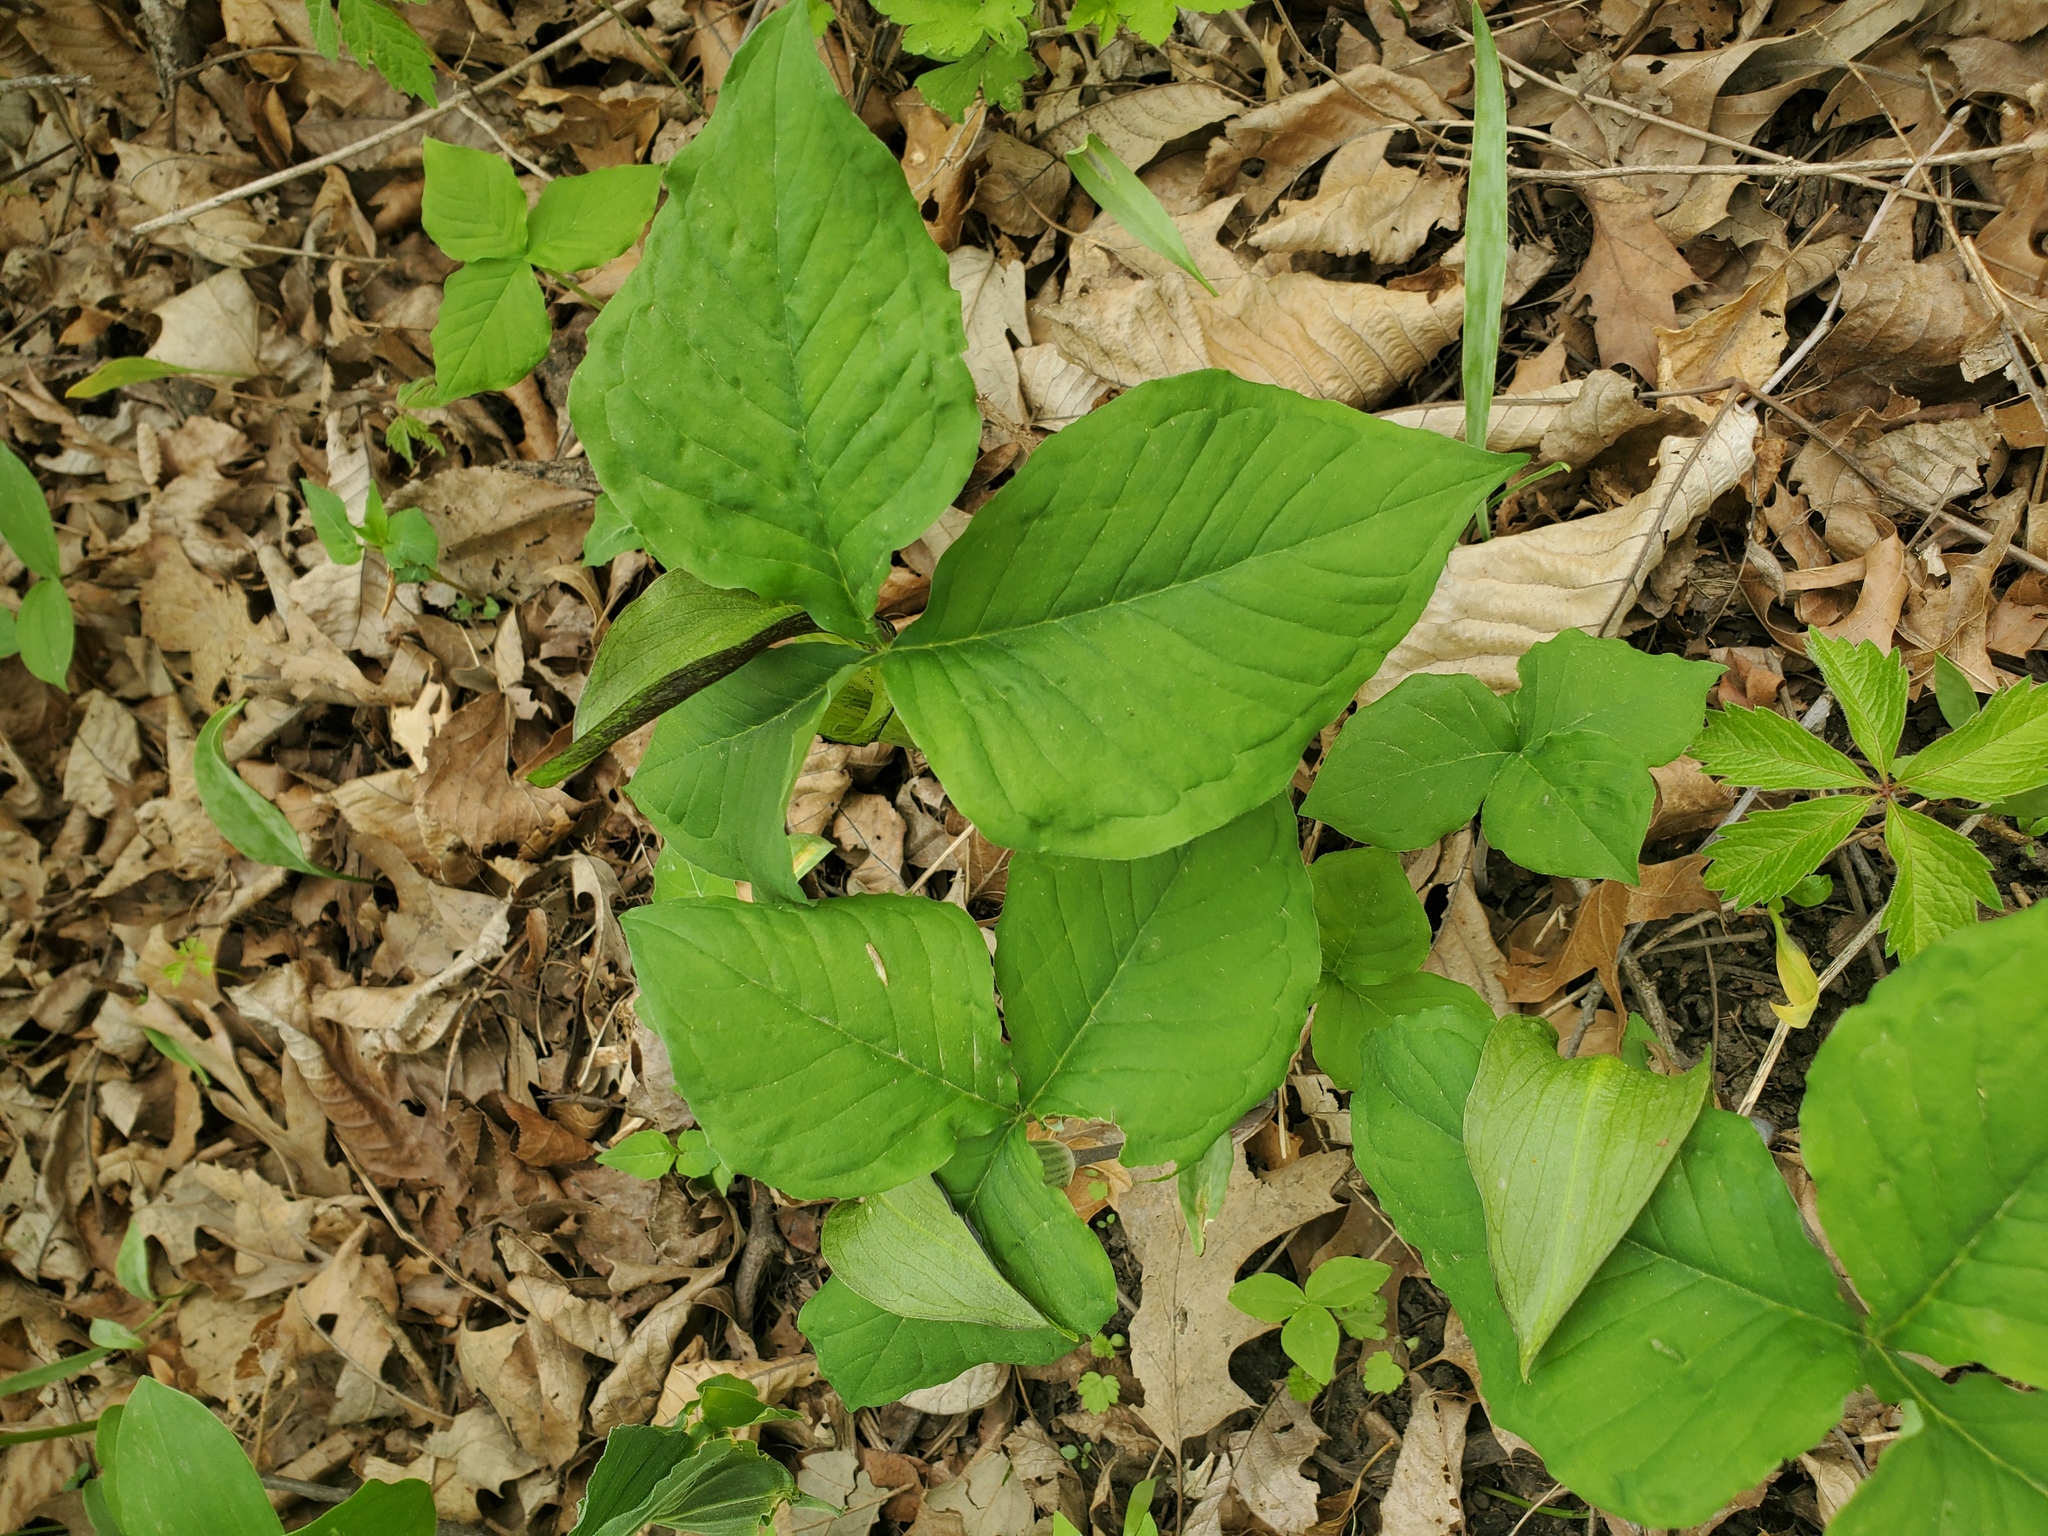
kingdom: Plantae
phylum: Tracheophyta
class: Liliopsida
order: Alismatales
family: Araceae
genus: Arisaema
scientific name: Arisaema triphyllum
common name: Jack-in-the-pulpit
